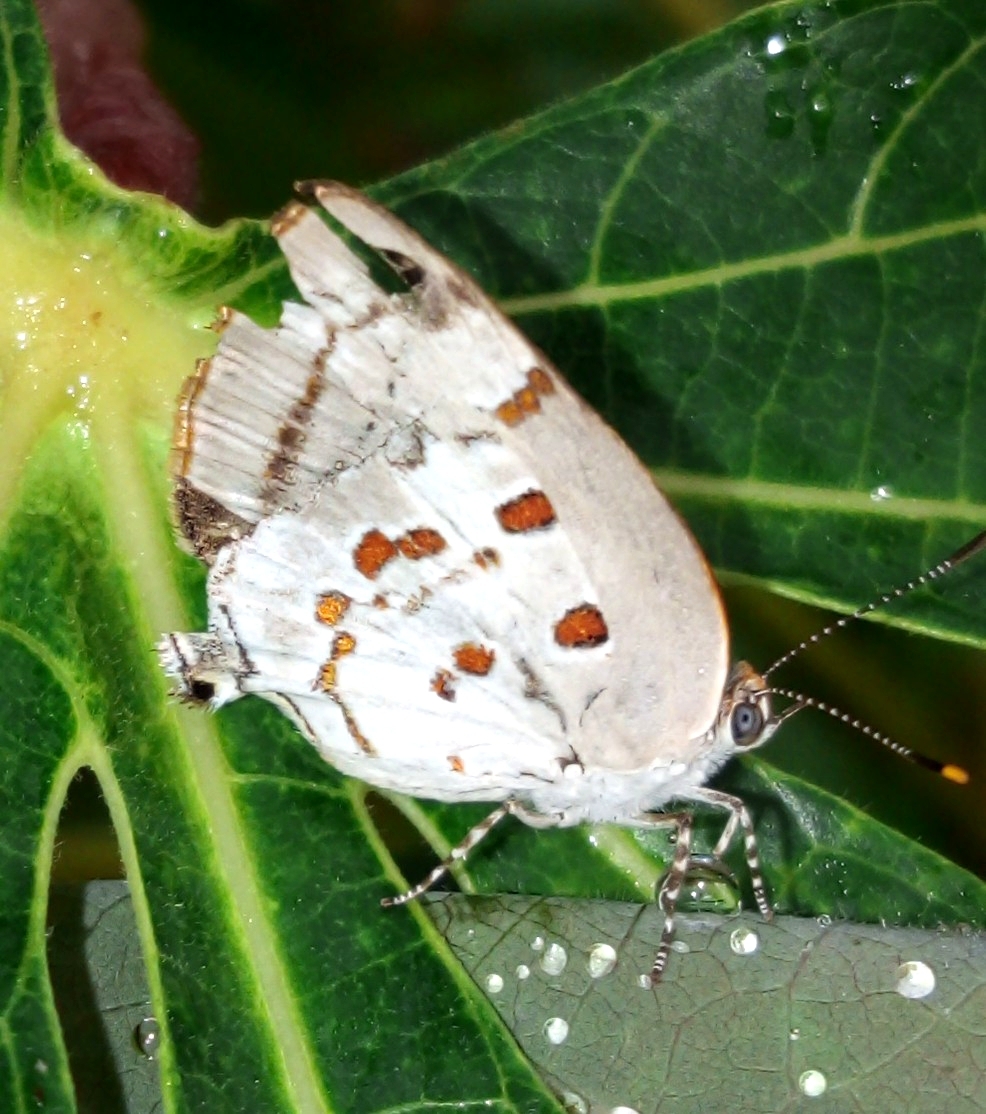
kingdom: Animalia
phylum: Arthropoda
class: Insecta
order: Lepidoptera
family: Lycaenidae
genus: Tmolus
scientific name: Tmolus echion
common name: Red-spotted hairstreak
